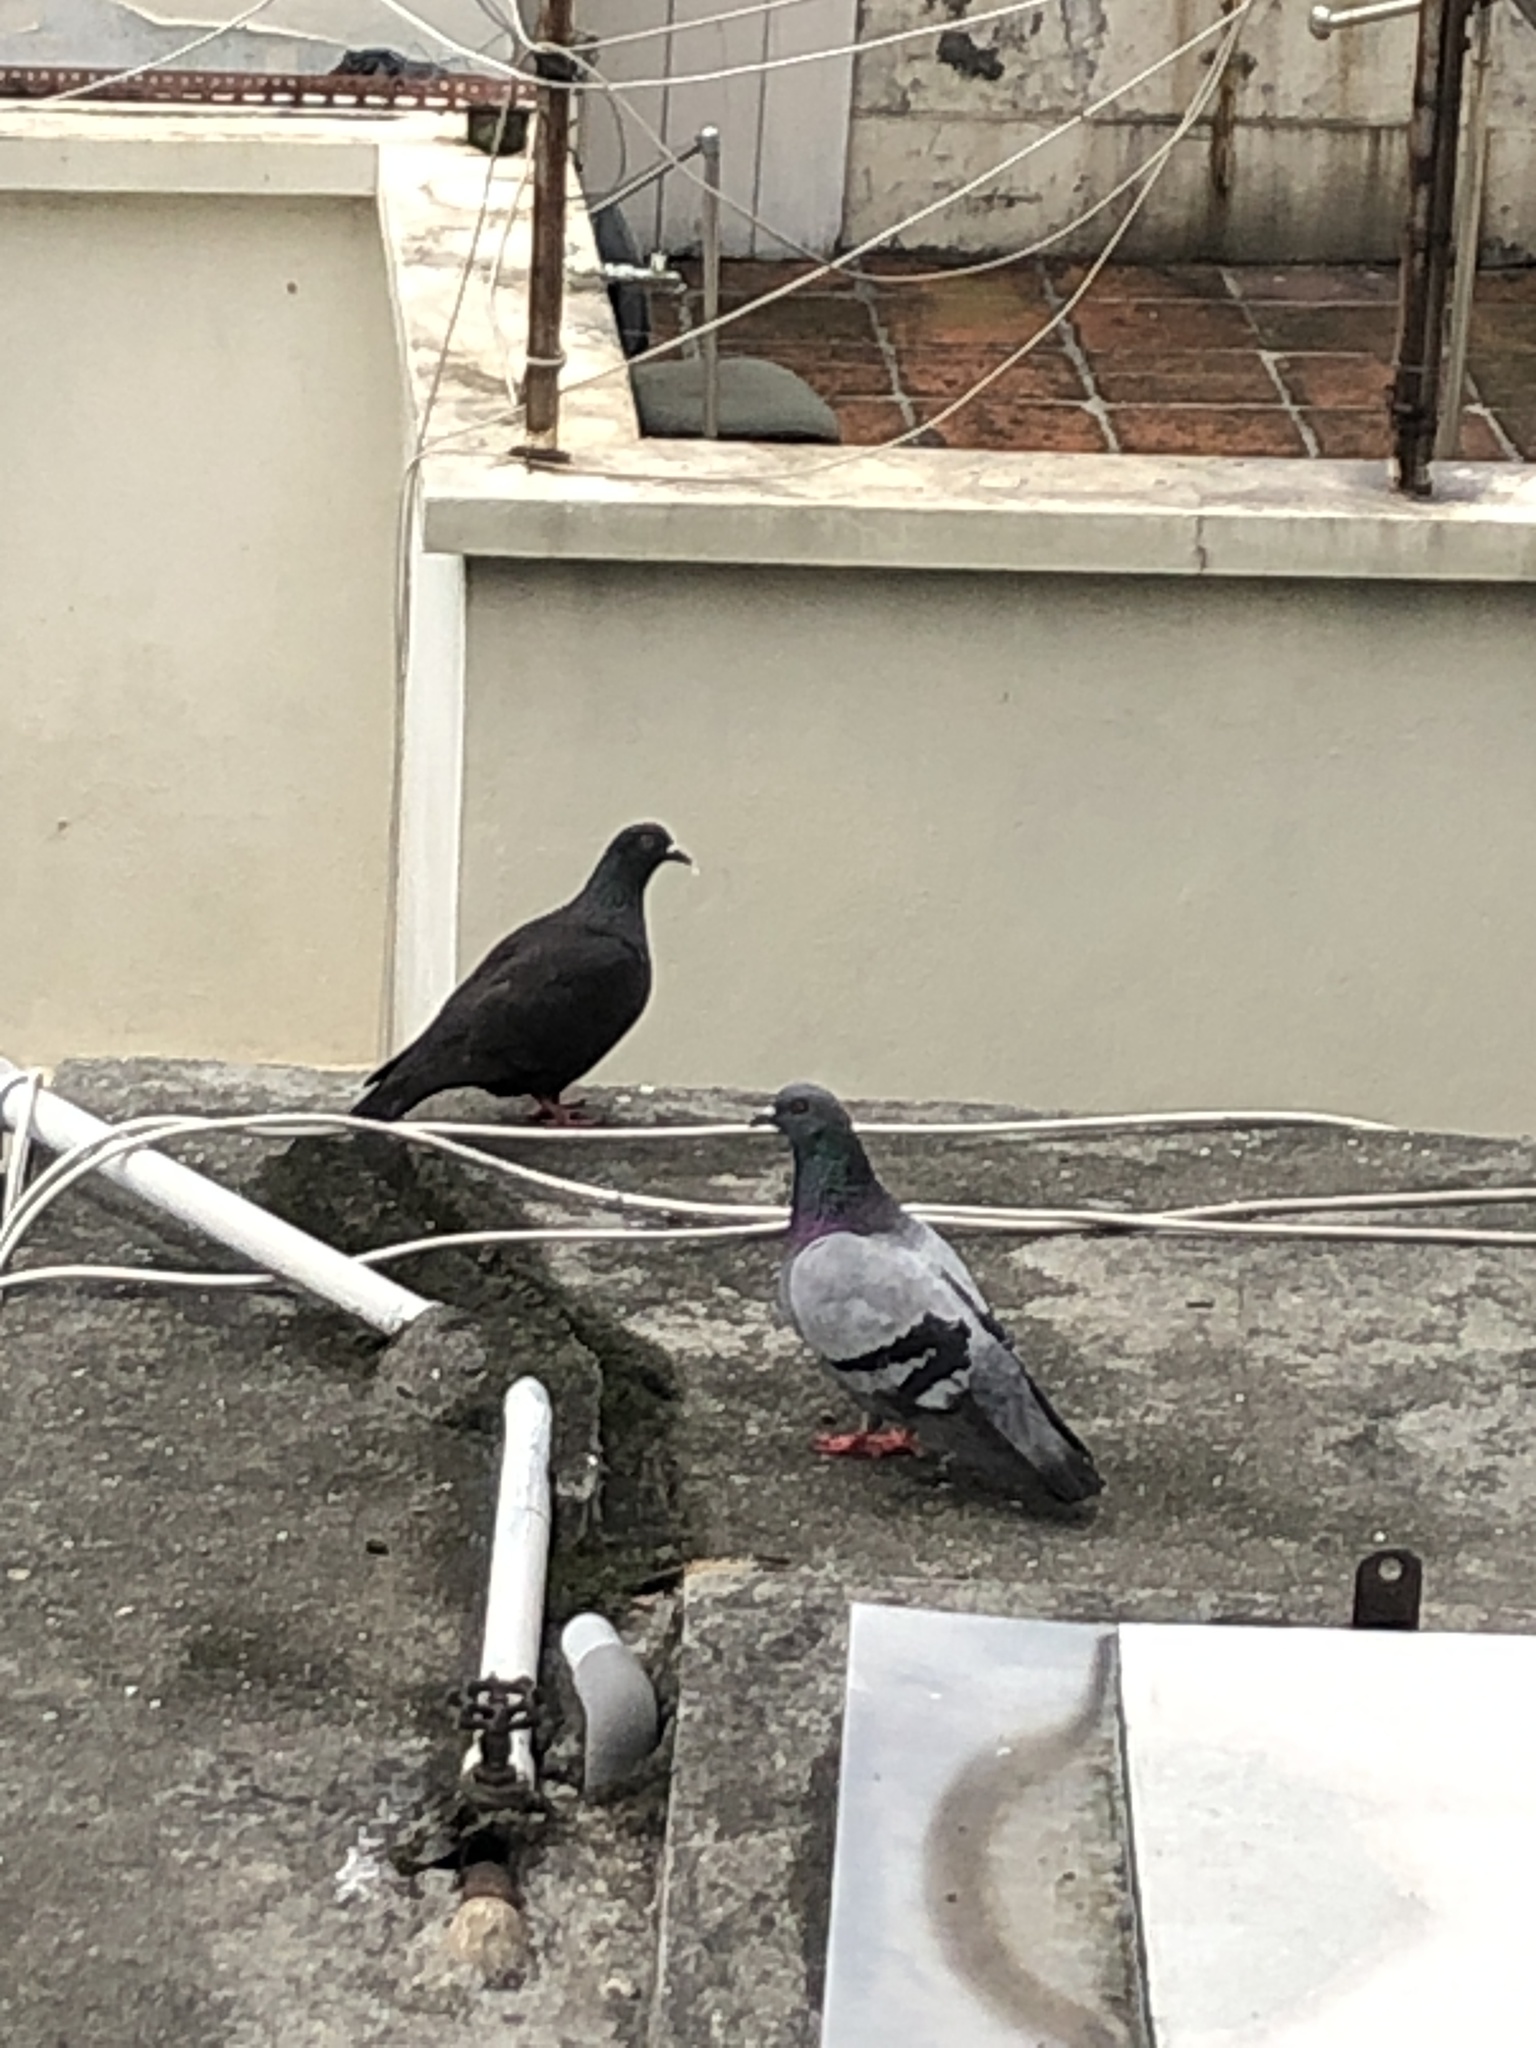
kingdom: Animalia
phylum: Chordata
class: Aves
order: Columbiformes
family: Columbidae
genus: Columba
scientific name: Columba livia
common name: Rock pigeon
